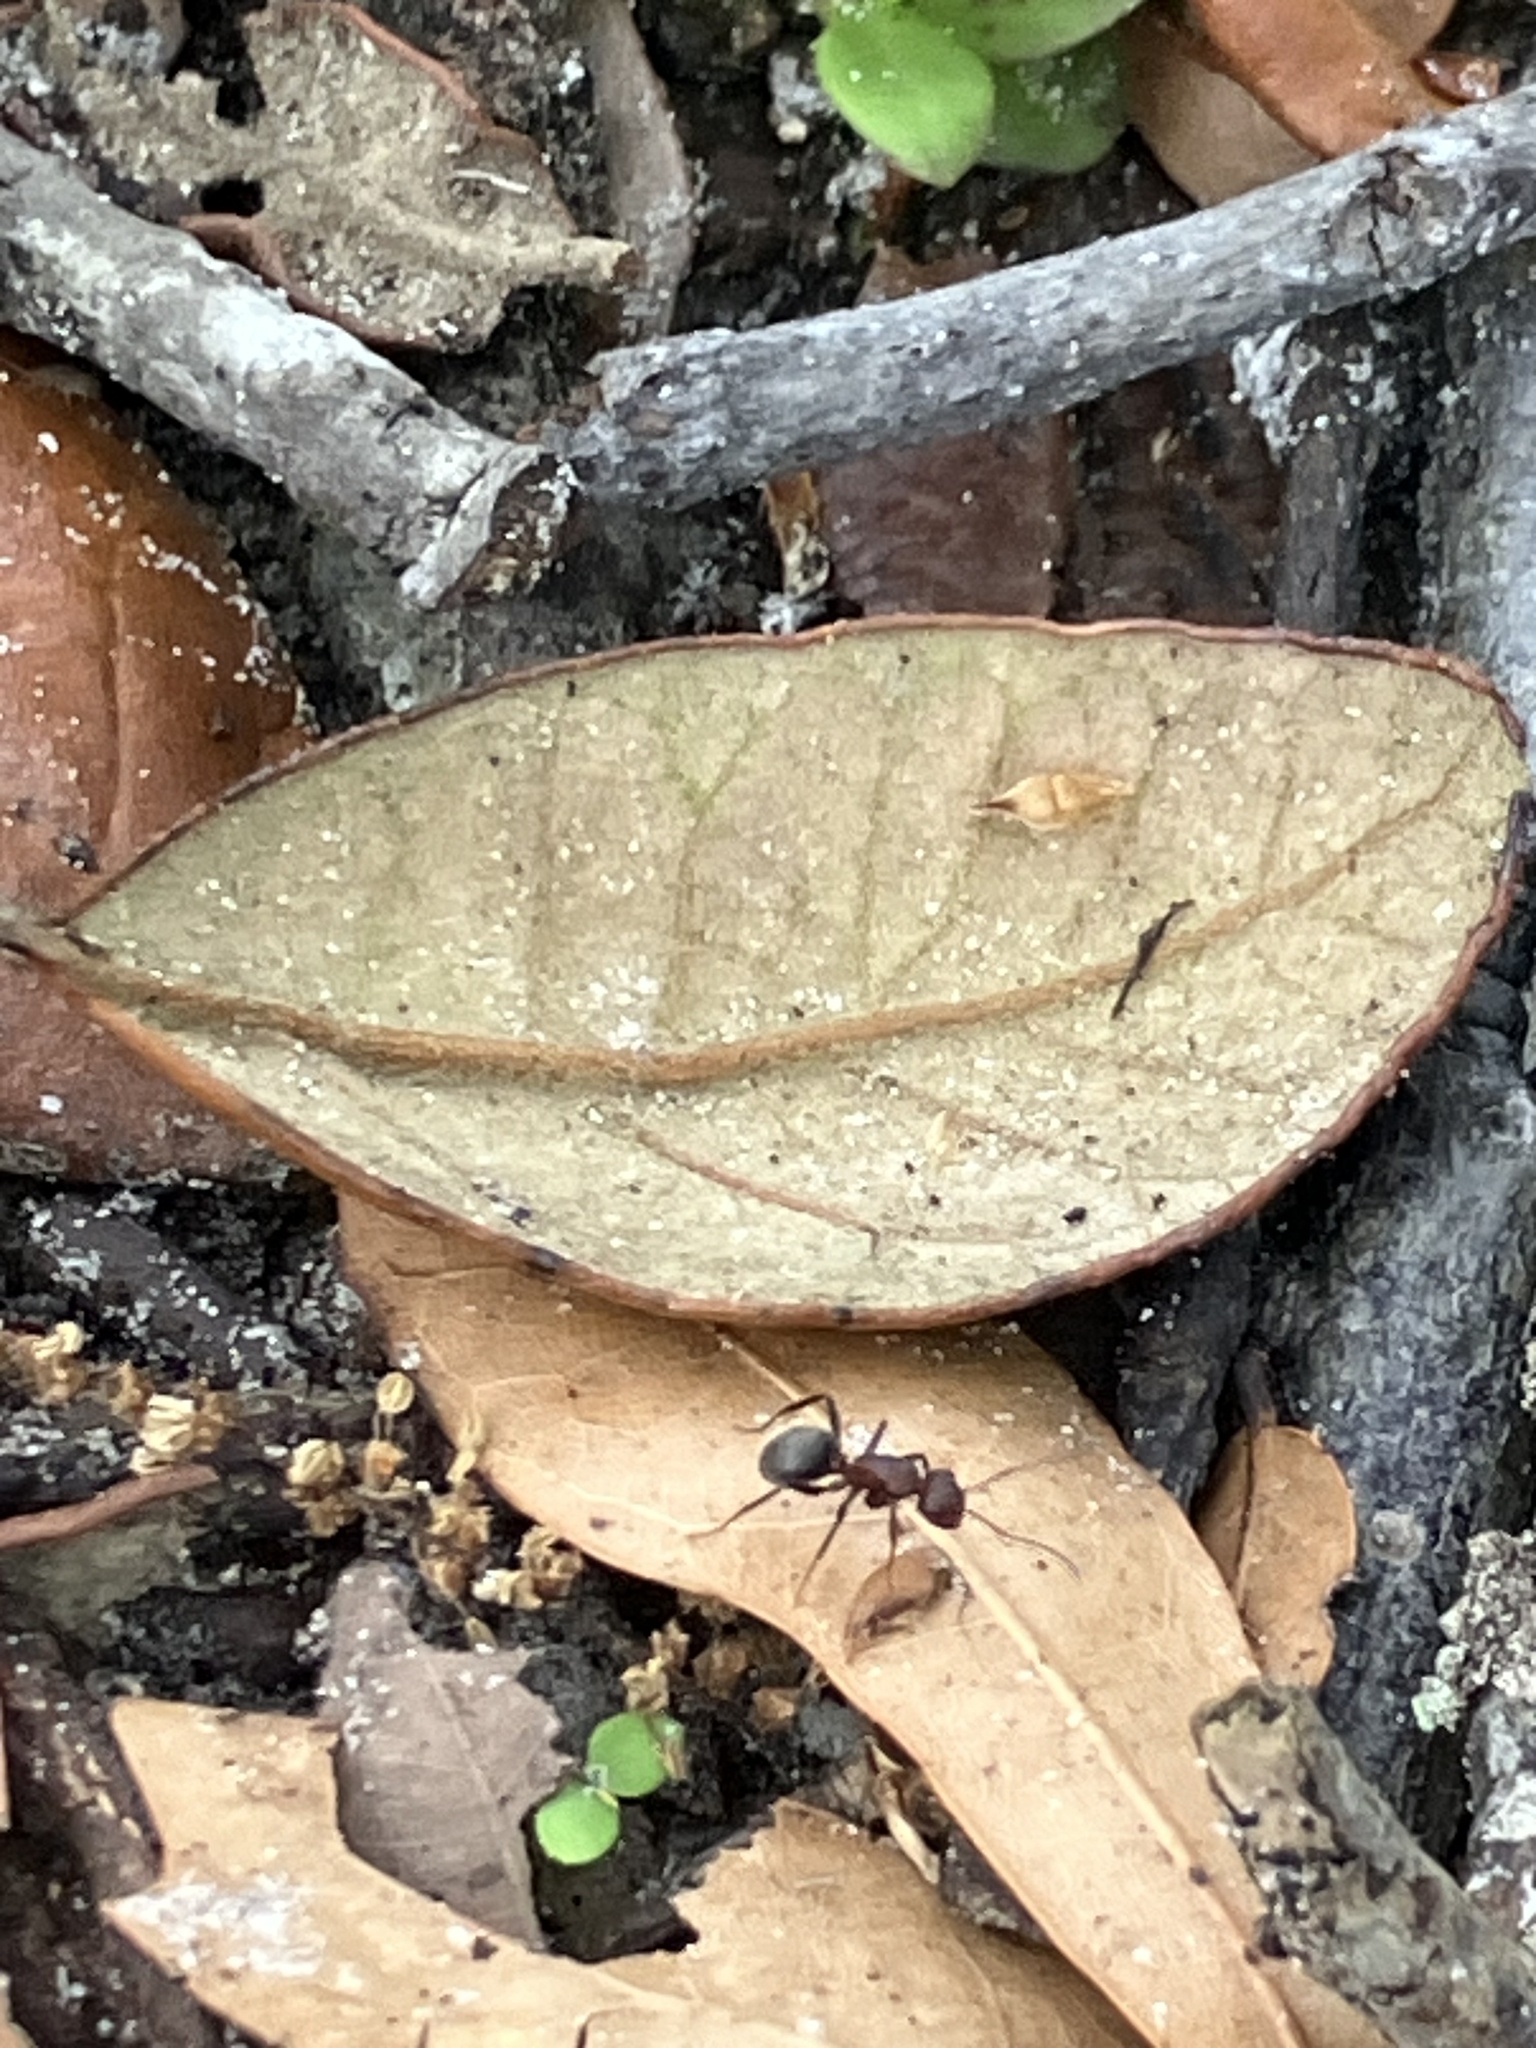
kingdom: Animalia
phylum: Arthropoda
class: Insecta
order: Hymenoptera
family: Formicidae
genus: Camponotus
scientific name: Camponotus planatus
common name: Compact carpenter ant
